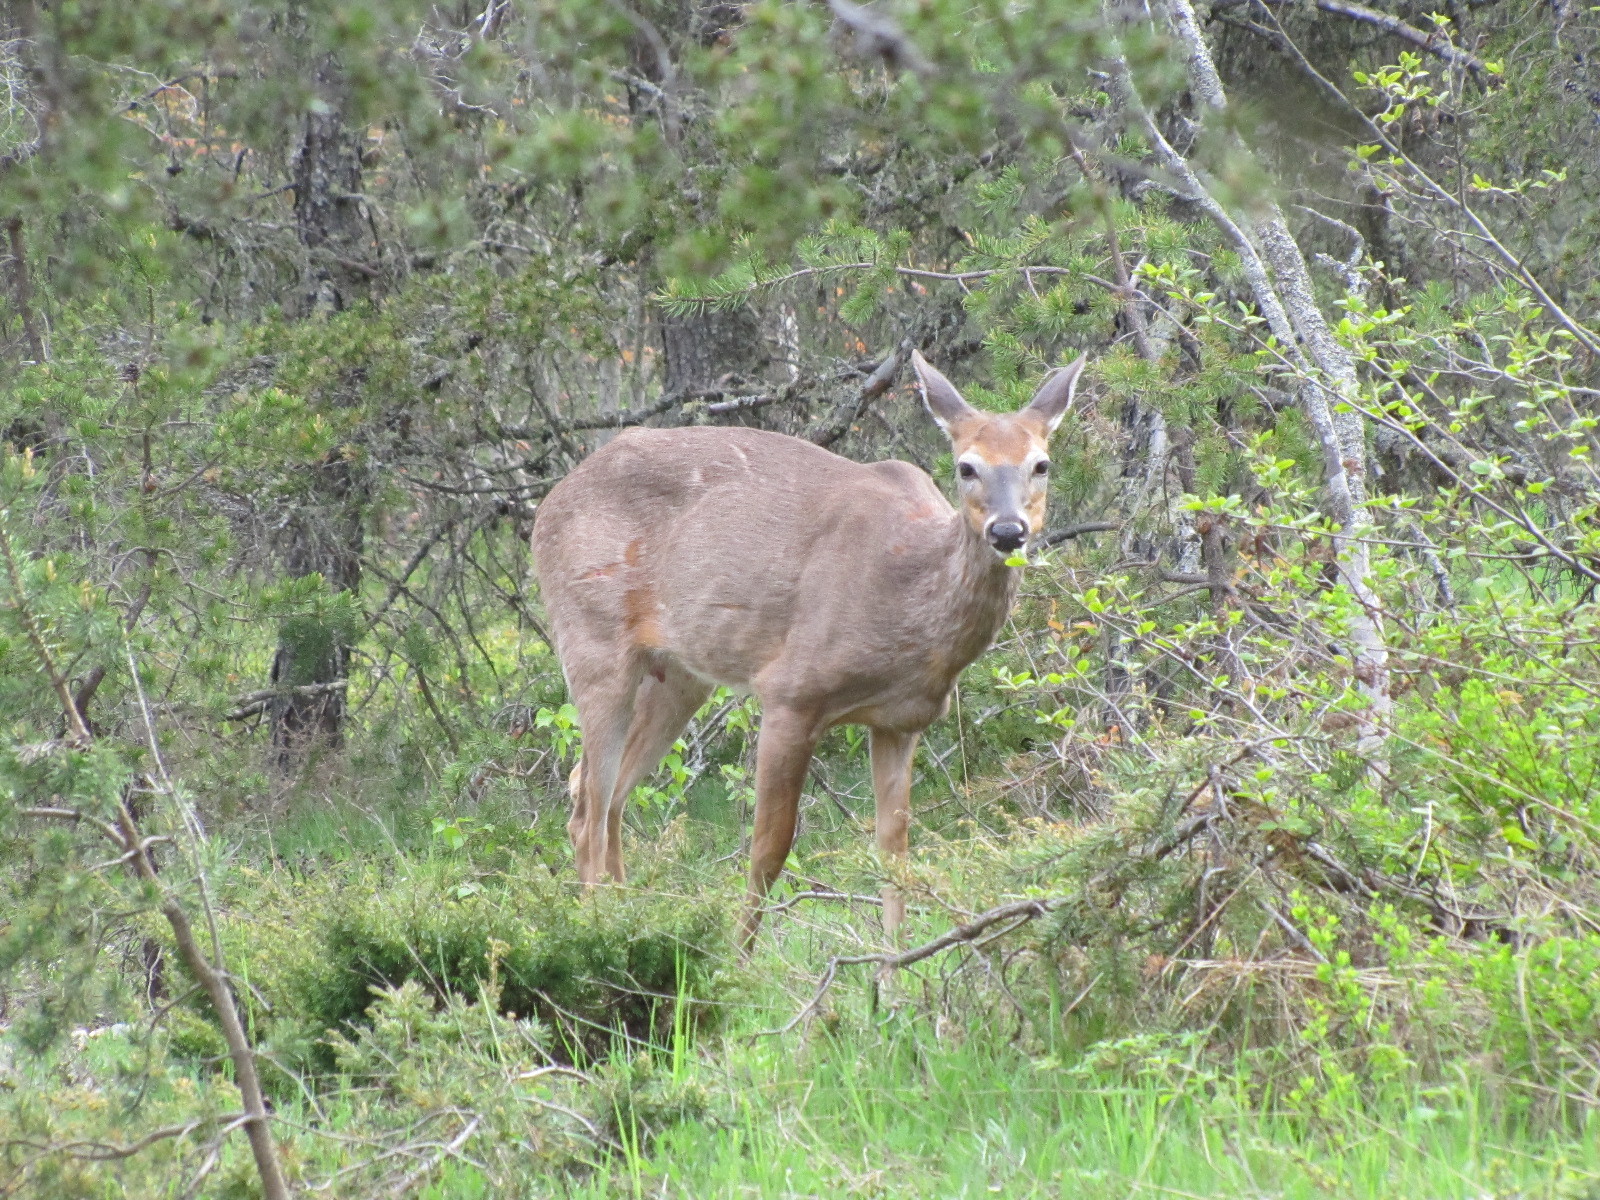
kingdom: Animalia
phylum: Chordata
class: Mammalia
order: Artiodactyla
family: Cervidae
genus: Odocoileus
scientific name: Odocoileus virginianus
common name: White-tailed deer
